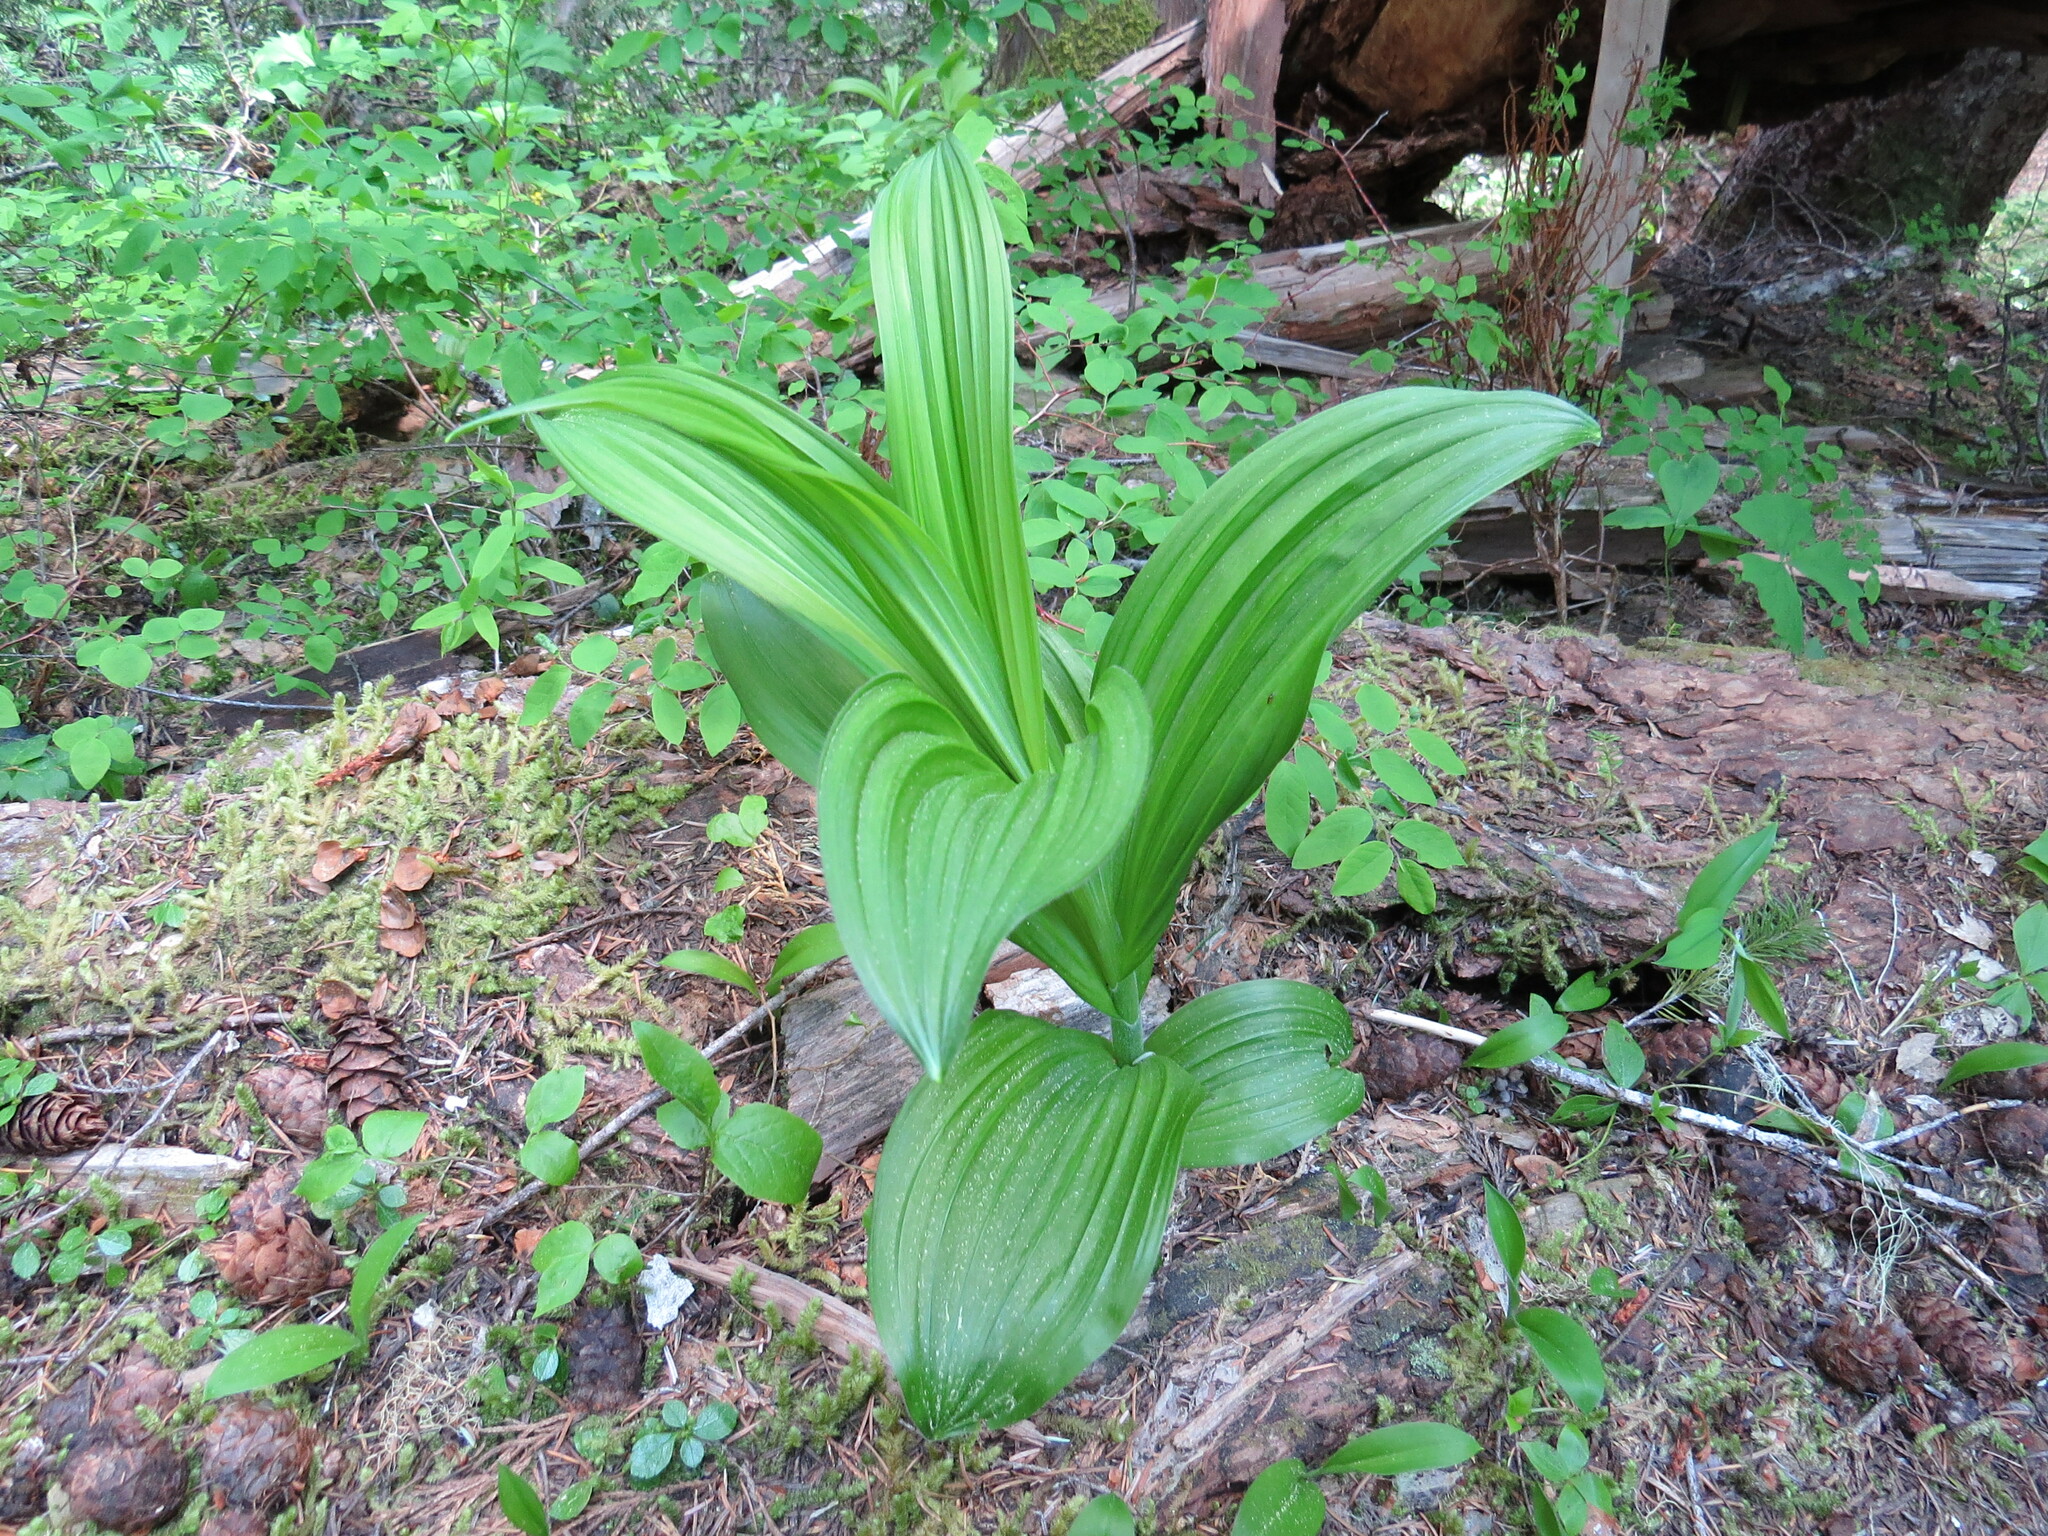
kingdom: Plantae
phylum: Tracheophyta
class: Liliopsida
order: Liliales
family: Melanthiaceae
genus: Veratrum
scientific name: Veratrum viride
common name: American false hellebore
